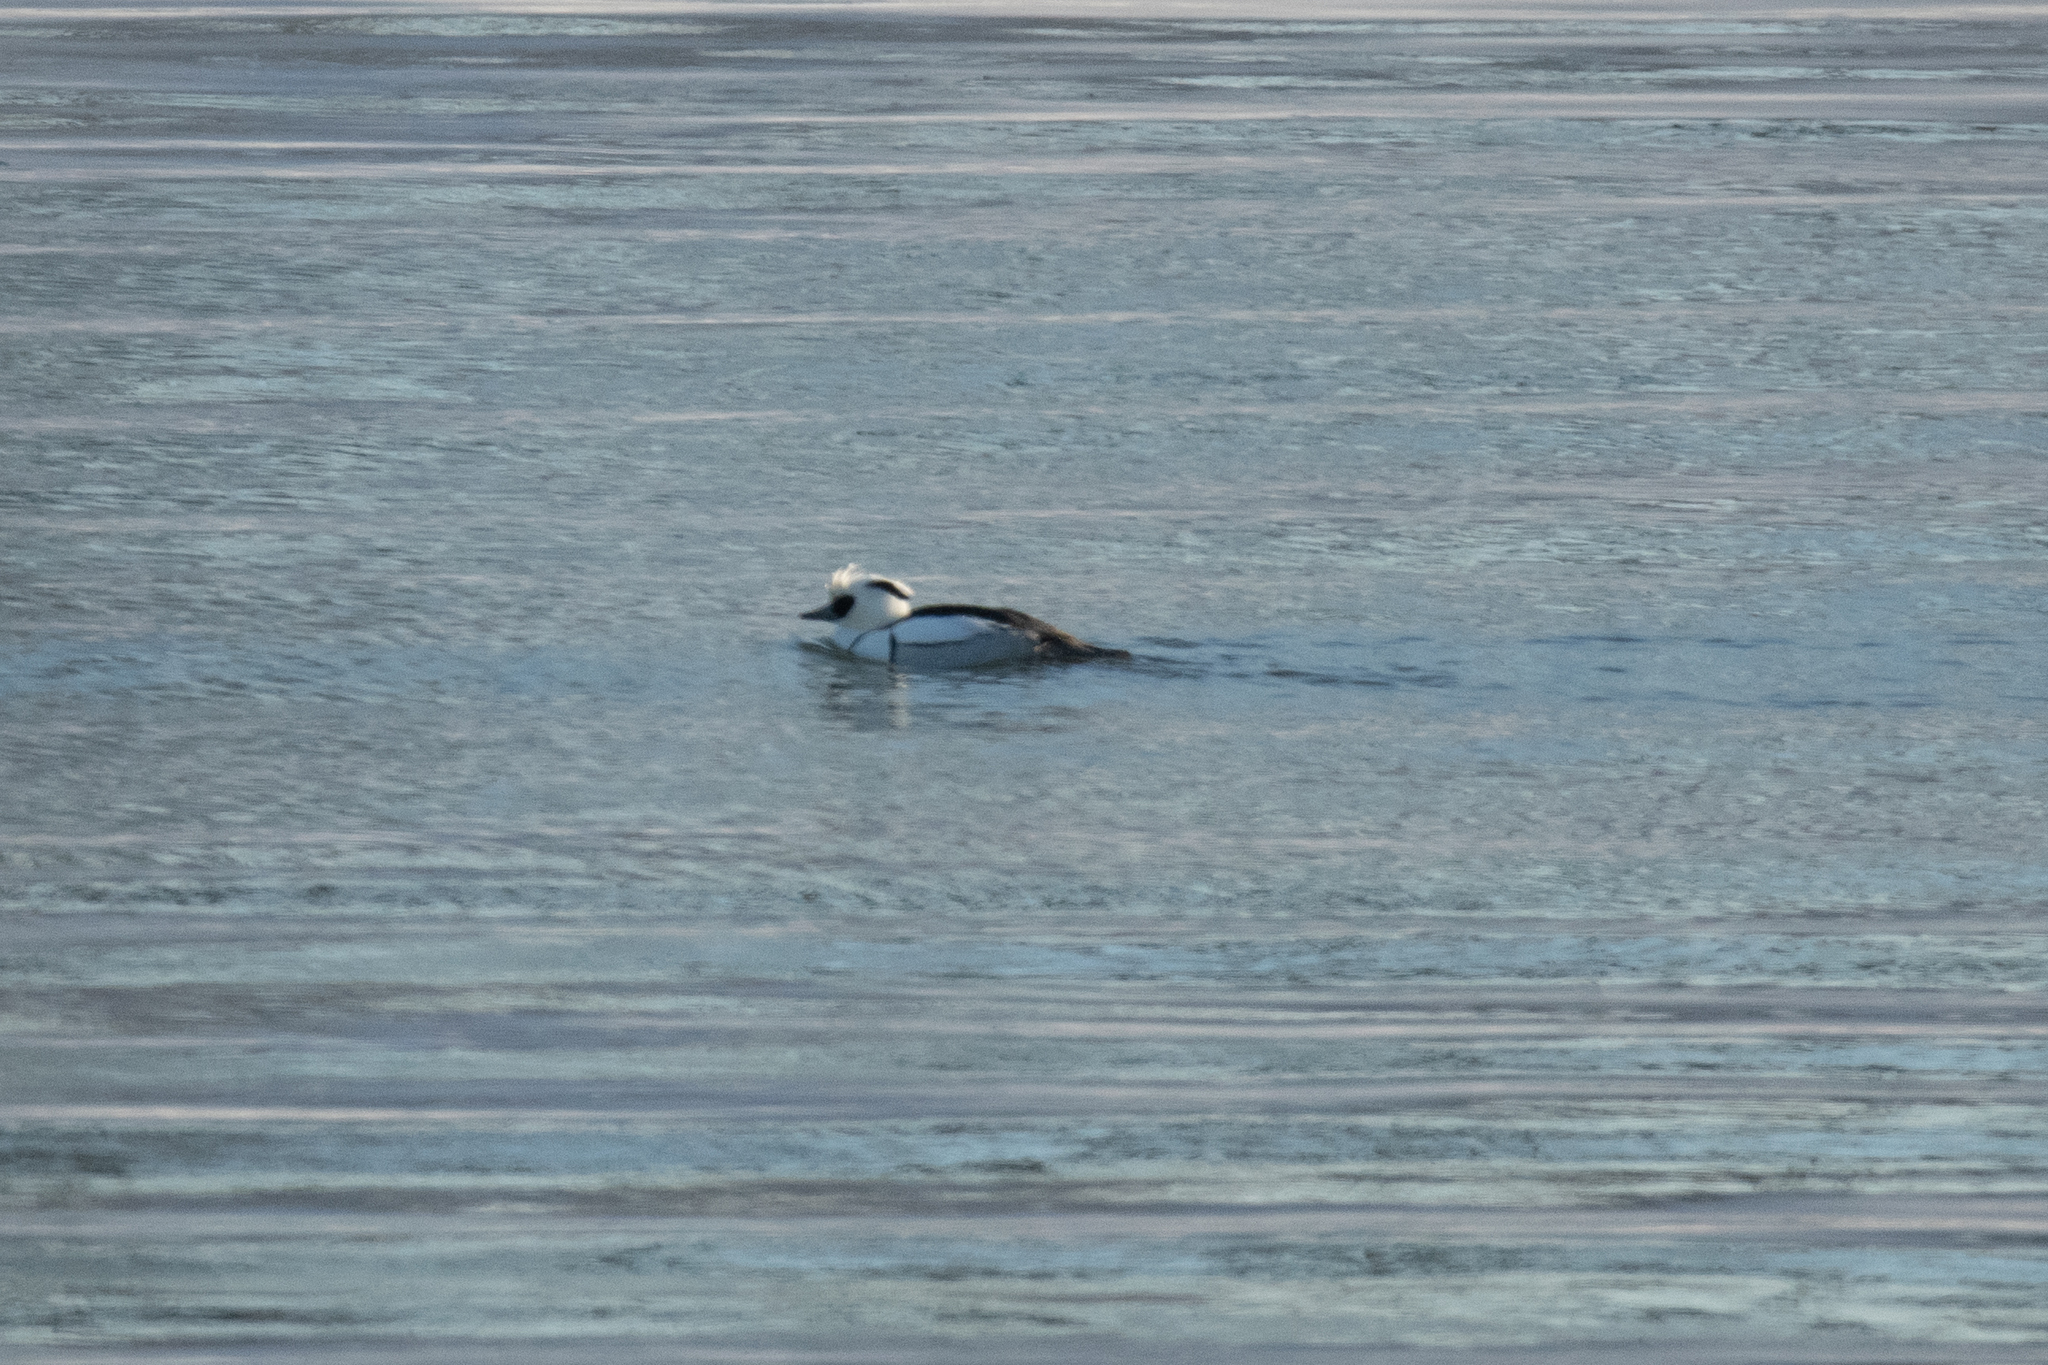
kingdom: Animalia
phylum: Chordata
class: Aves
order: Anseriformes
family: Anatidae
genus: Mergellus
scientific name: Mergellus albellus
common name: Smew
